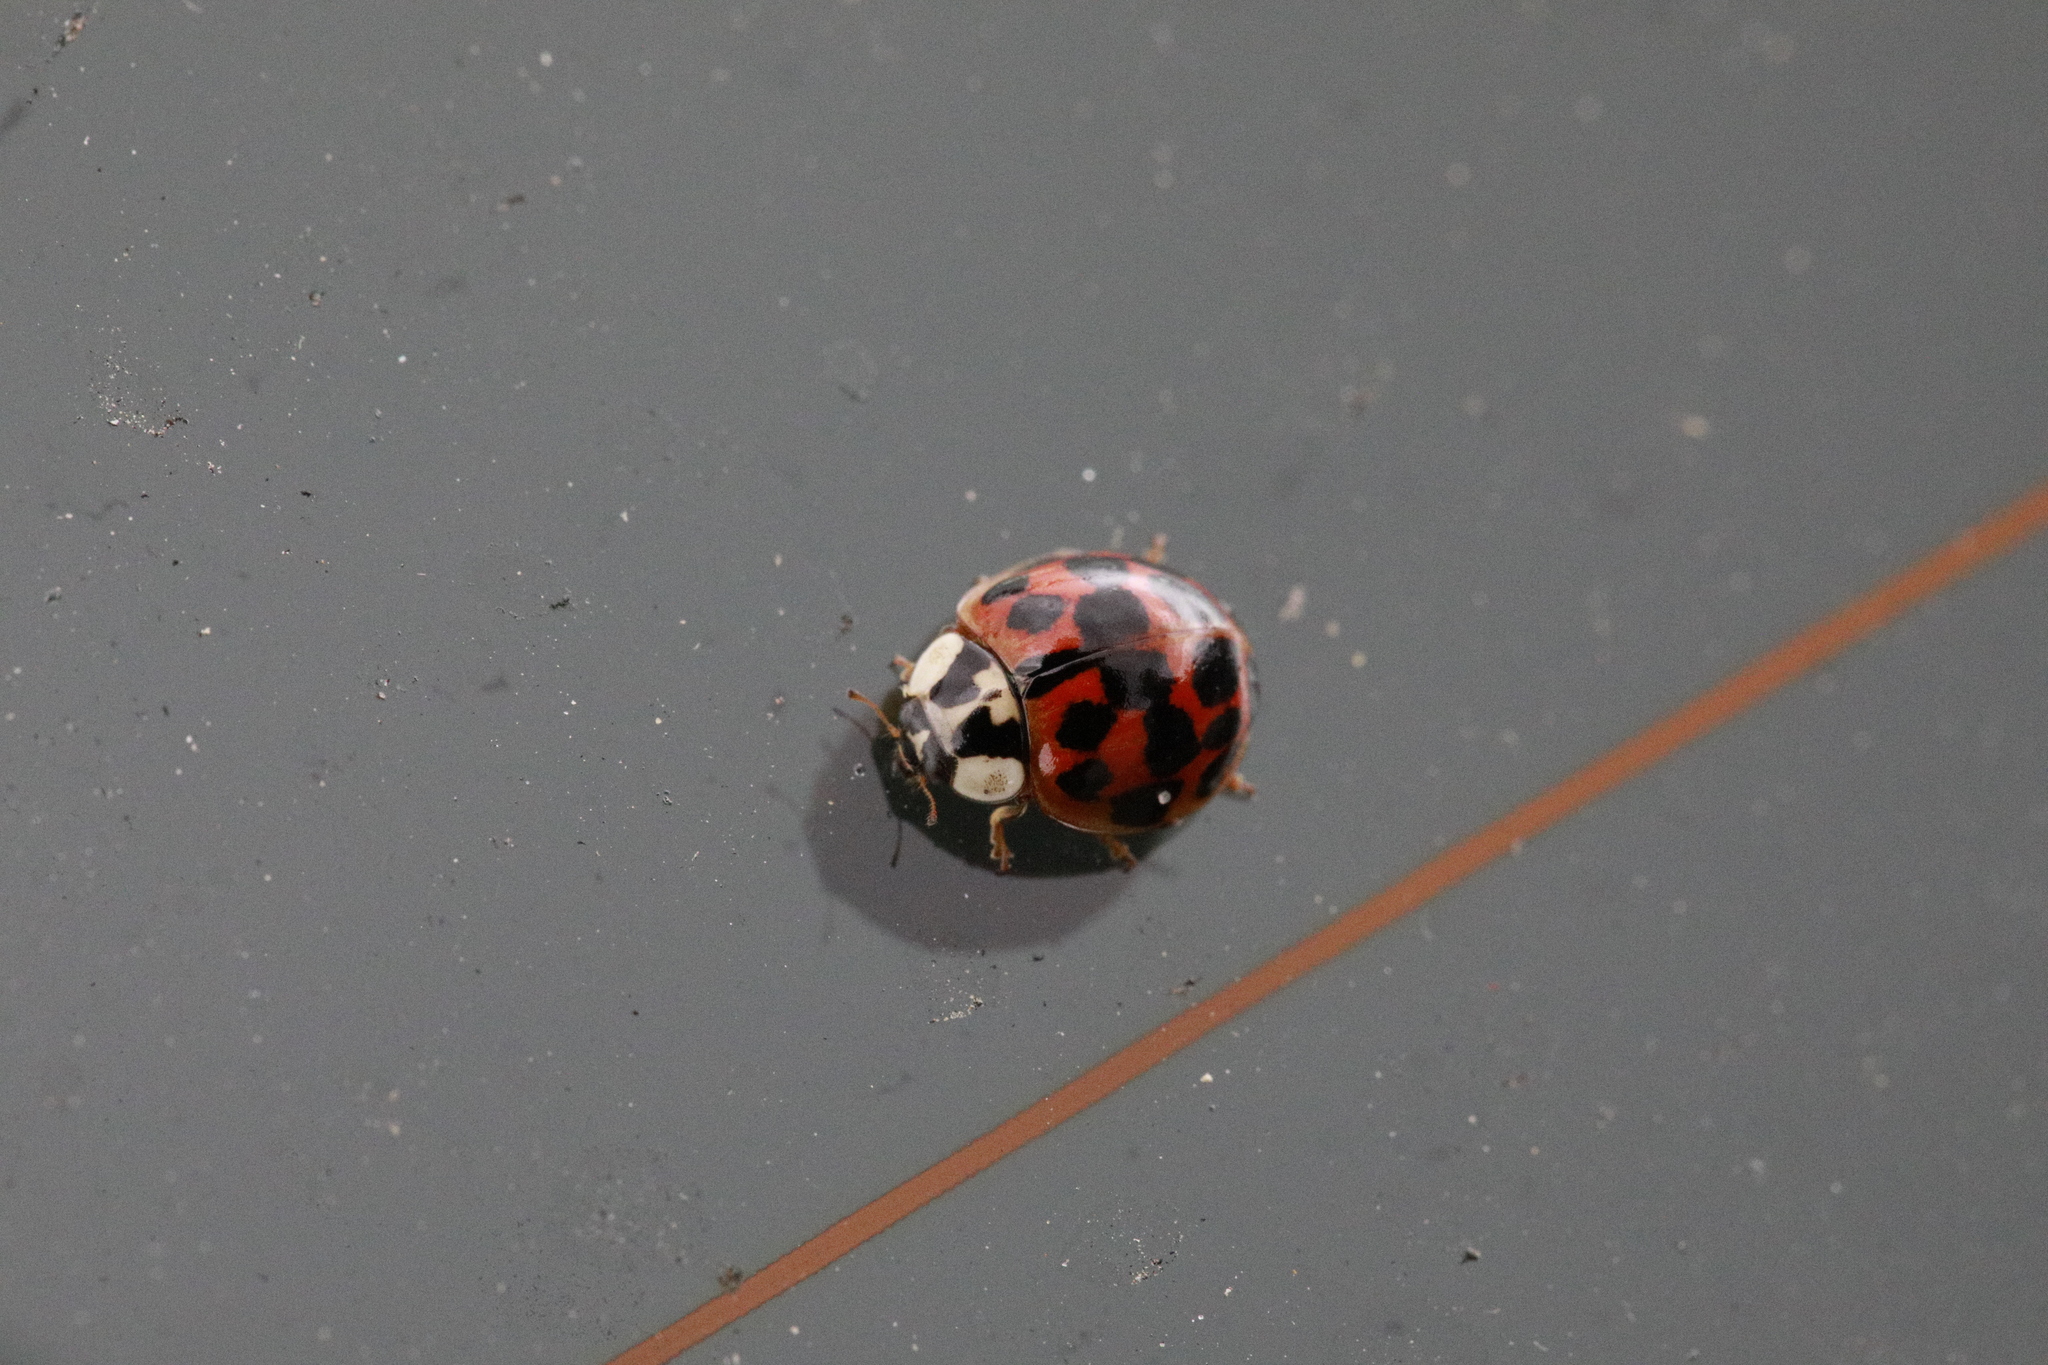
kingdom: Animalia
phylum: Arthropoda
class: Insecta
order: Coleoptera
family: Coccinellidae
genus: Harmonia
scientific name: Harmonia axyridis
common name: Harlequin ladybird
